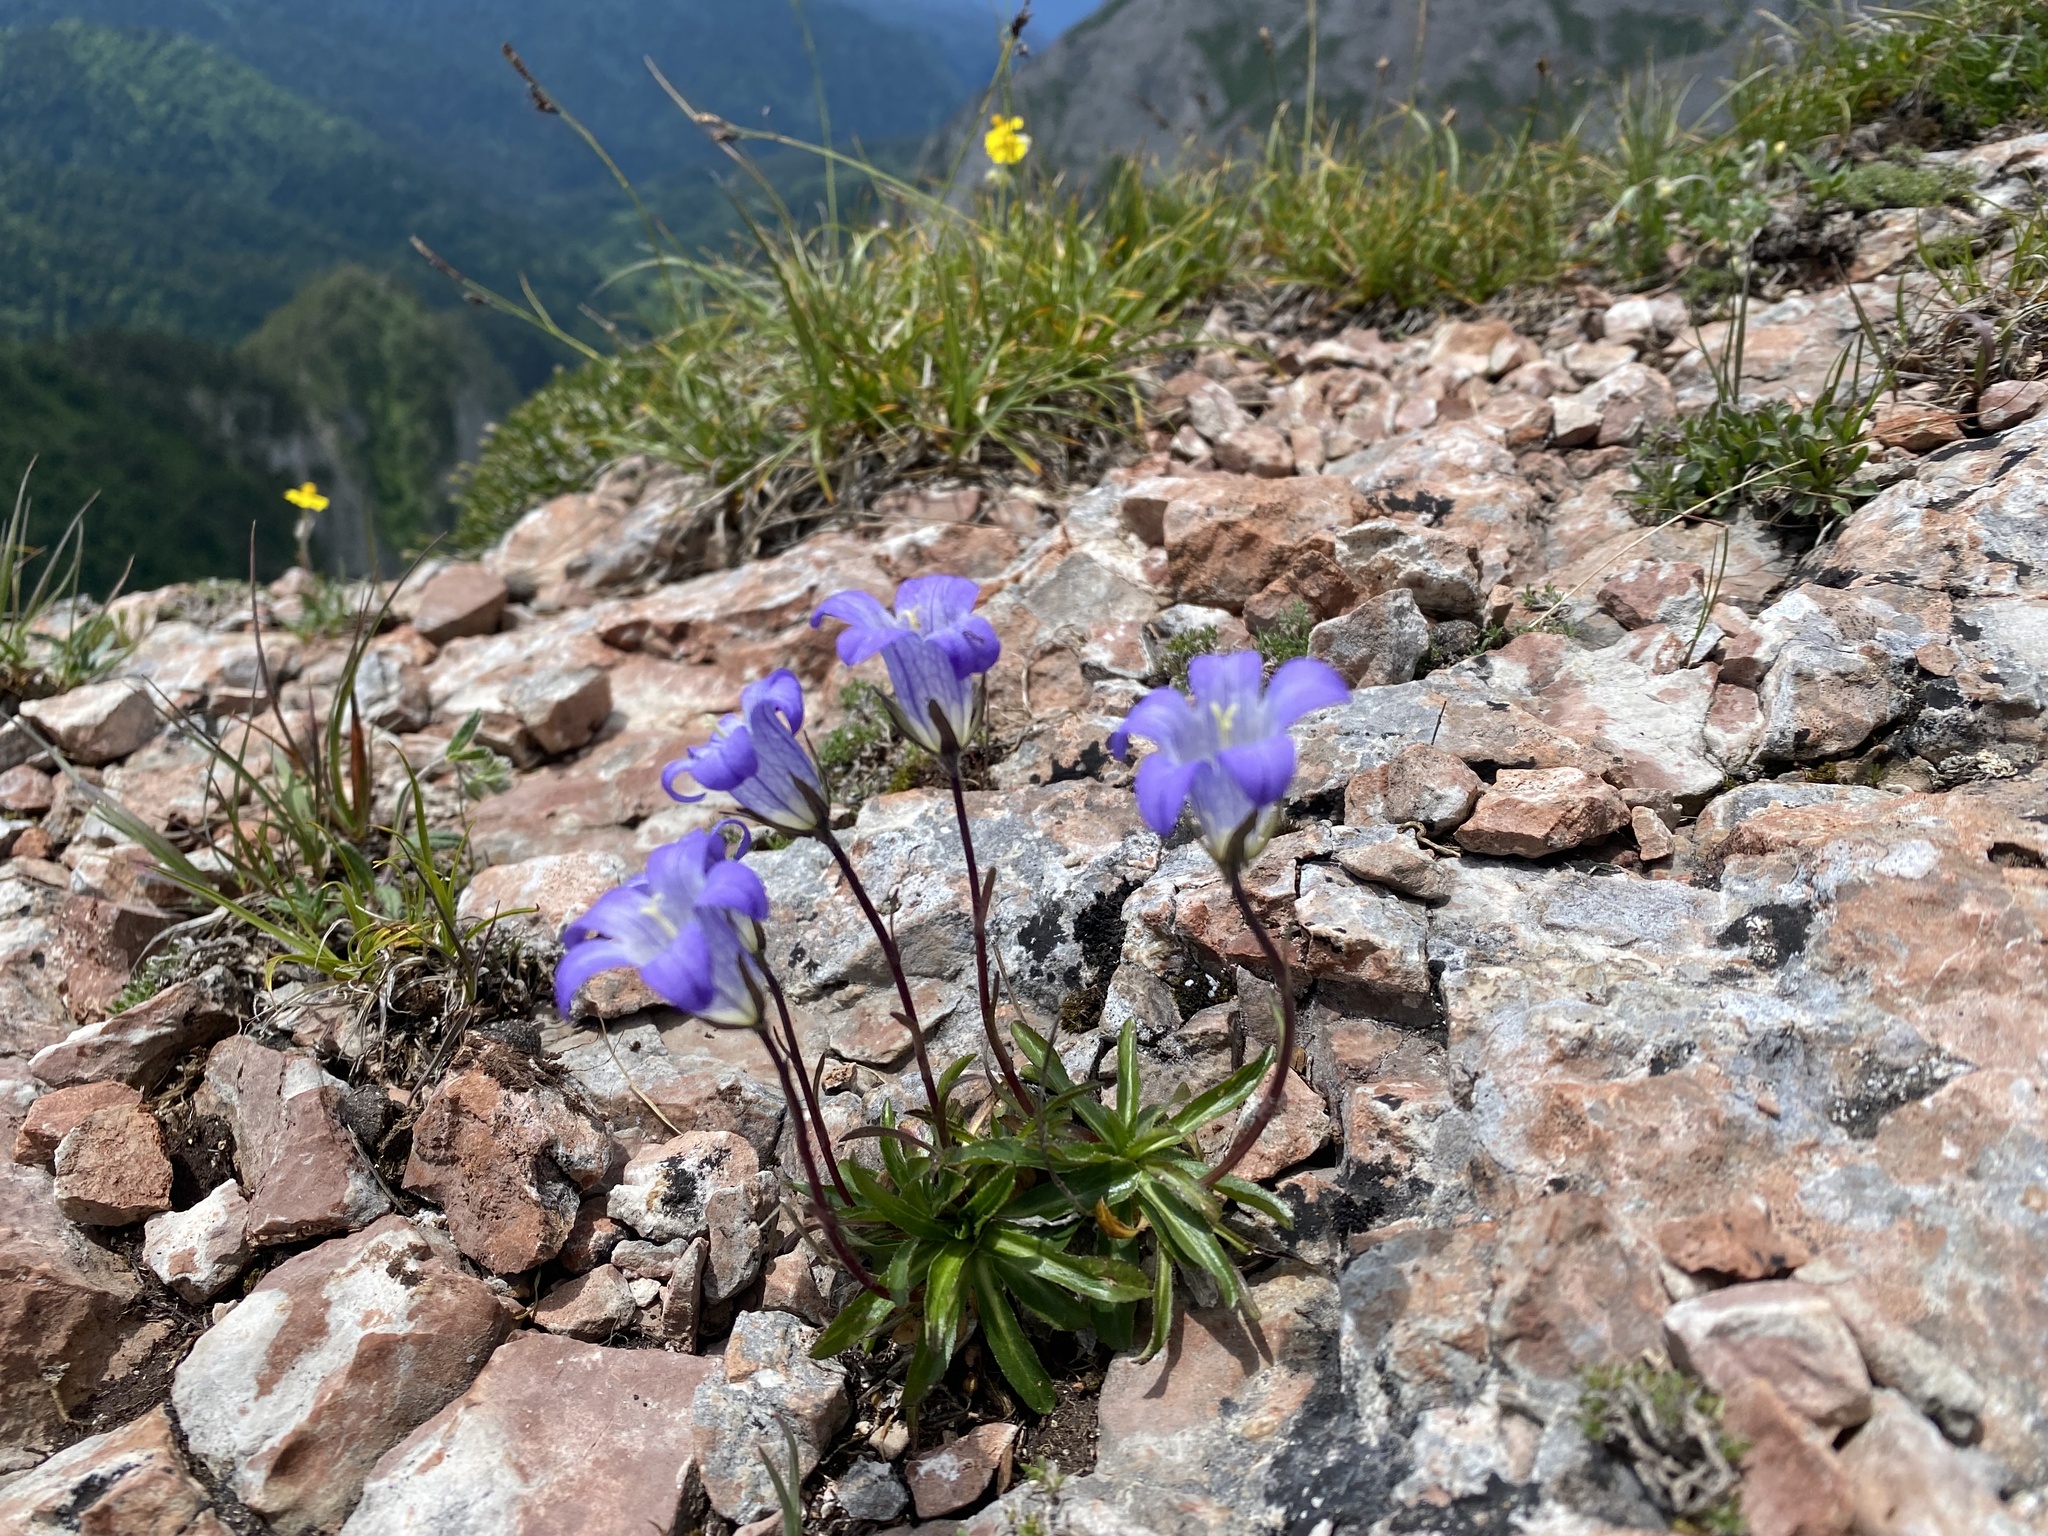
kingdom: Plantae
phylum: Tracheophyta
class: Magnoliopsida
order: Asterales
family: Campanulaceae
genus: Campanula
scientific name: Campanula ciliata
